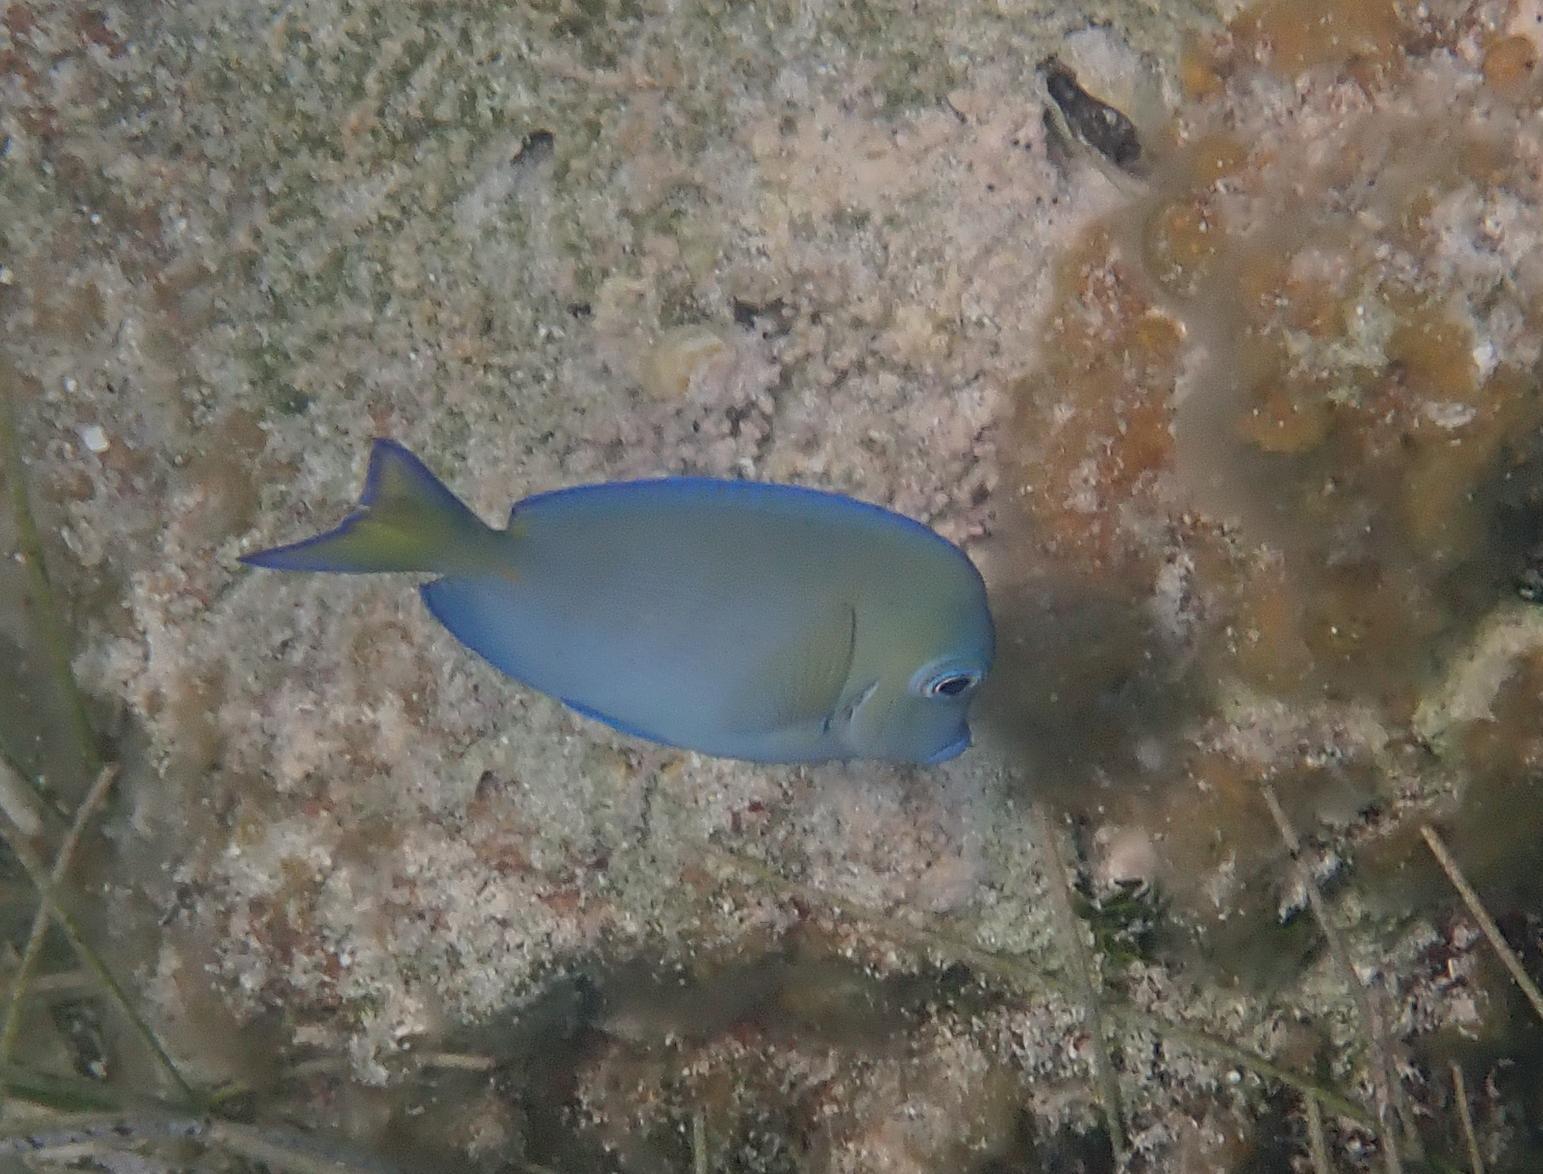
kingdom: Animalia
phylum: Chordata
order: Perciformes
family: Acanthuridae
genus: Acanthurus
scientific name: Acanthurus coeruleus
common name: Blue tang
